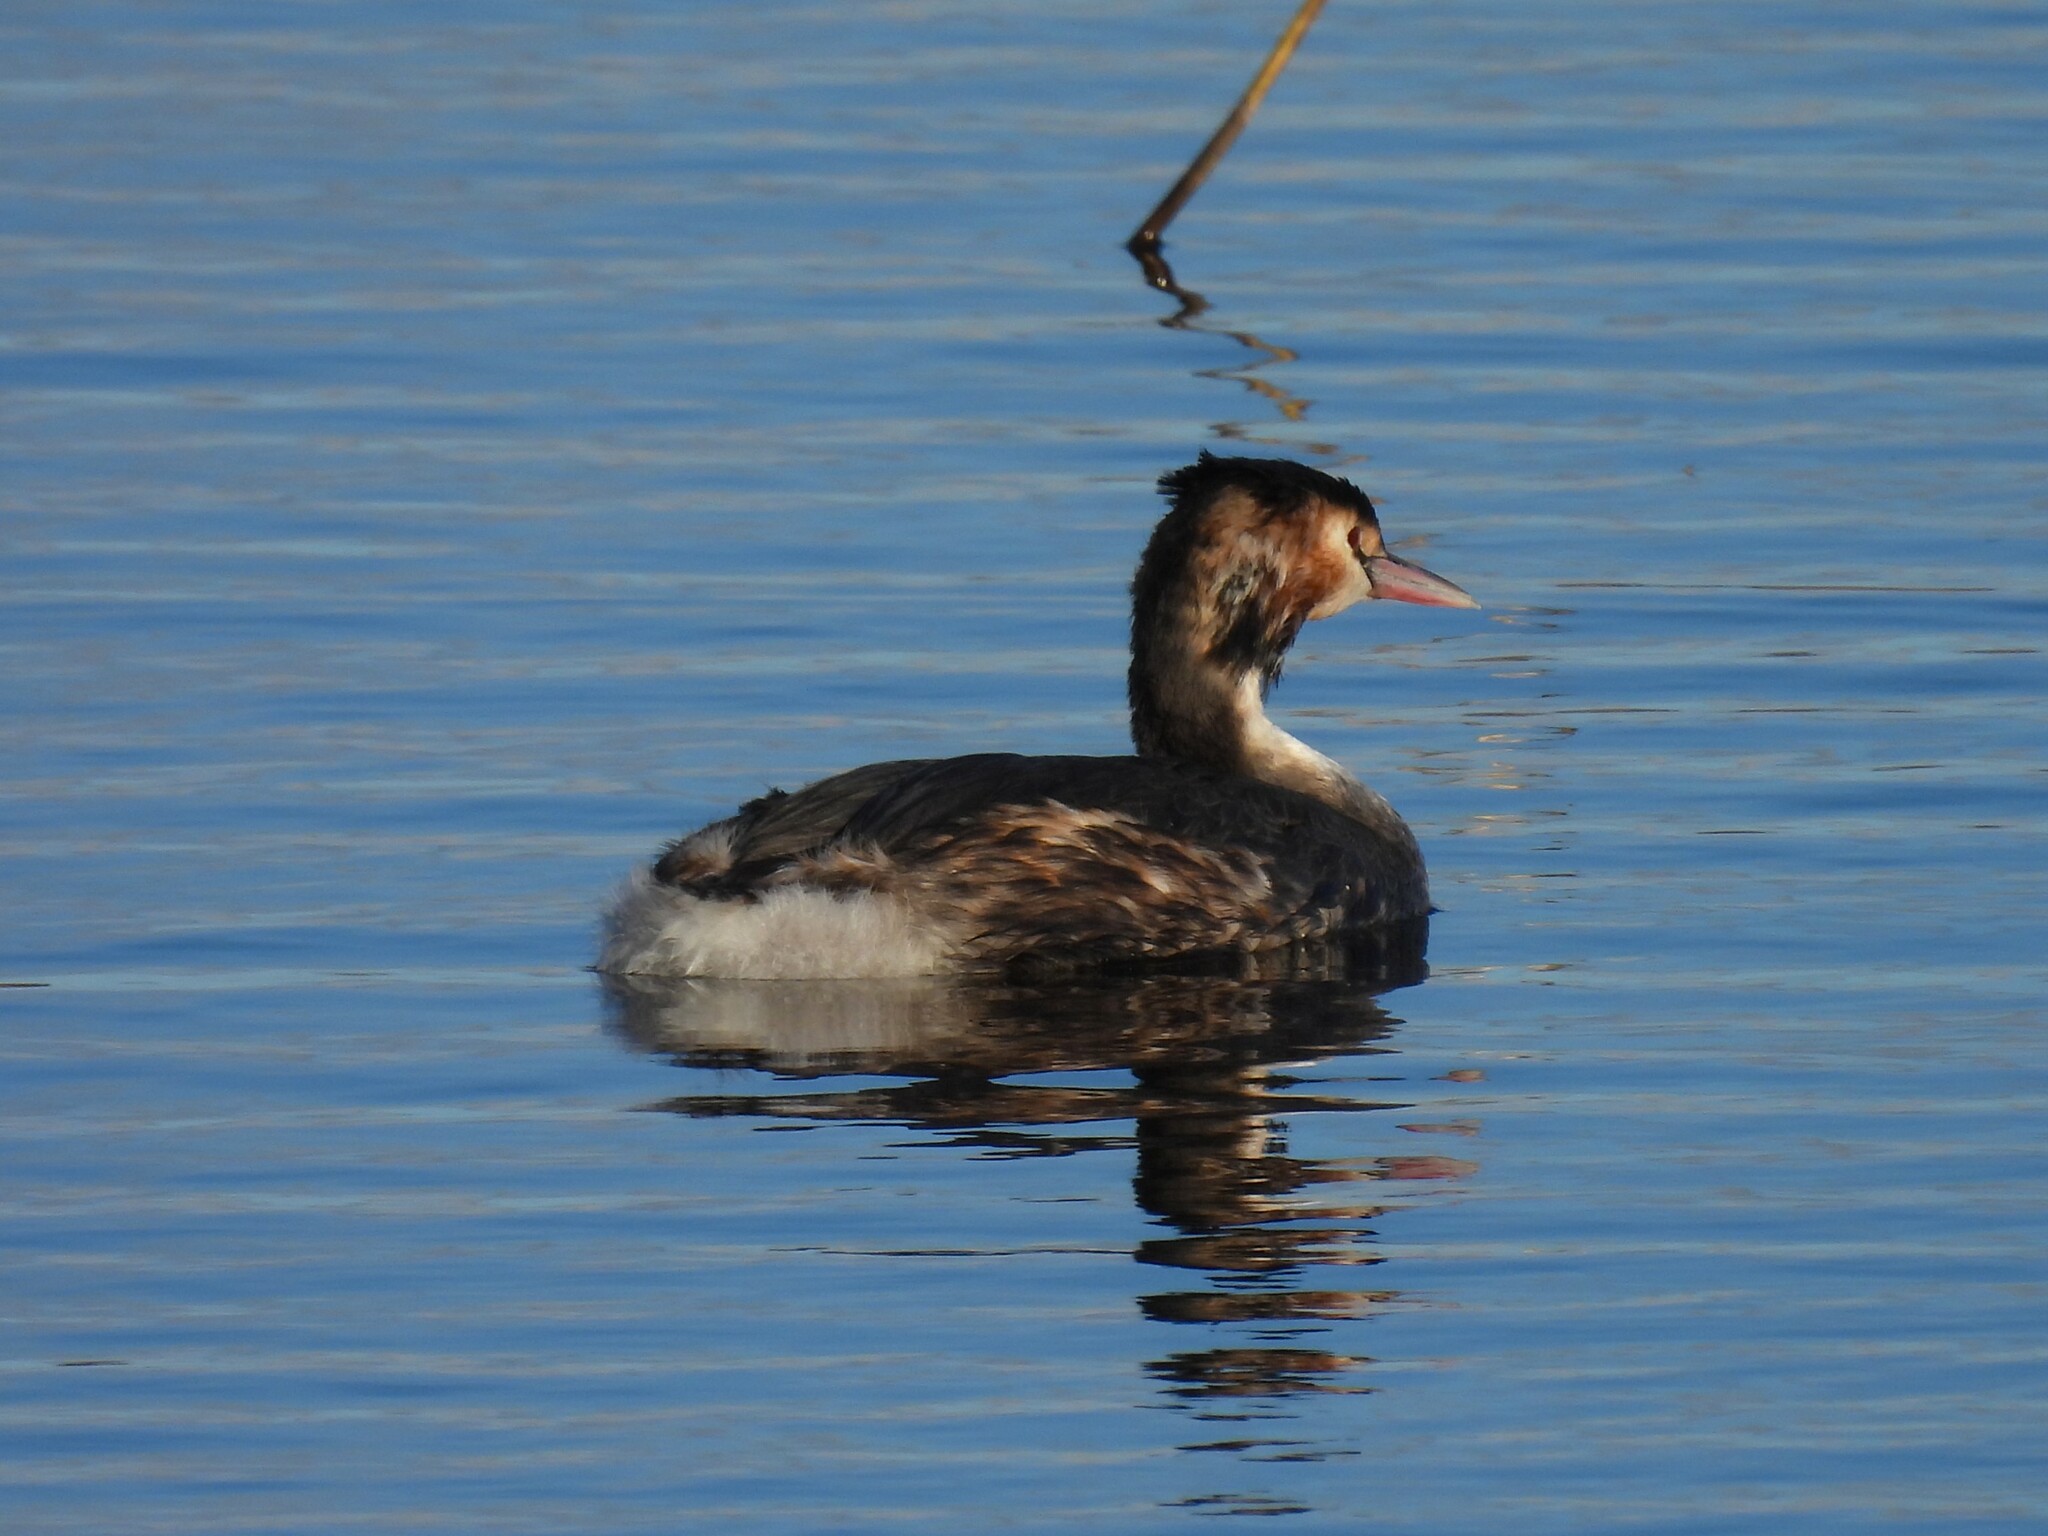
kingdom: Animalia
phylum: Chordata
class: Aves
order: Podicipediformes
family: Podicipedidae
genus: Podiceps
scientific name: Podiceps cristatus
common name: Great crested grebe
